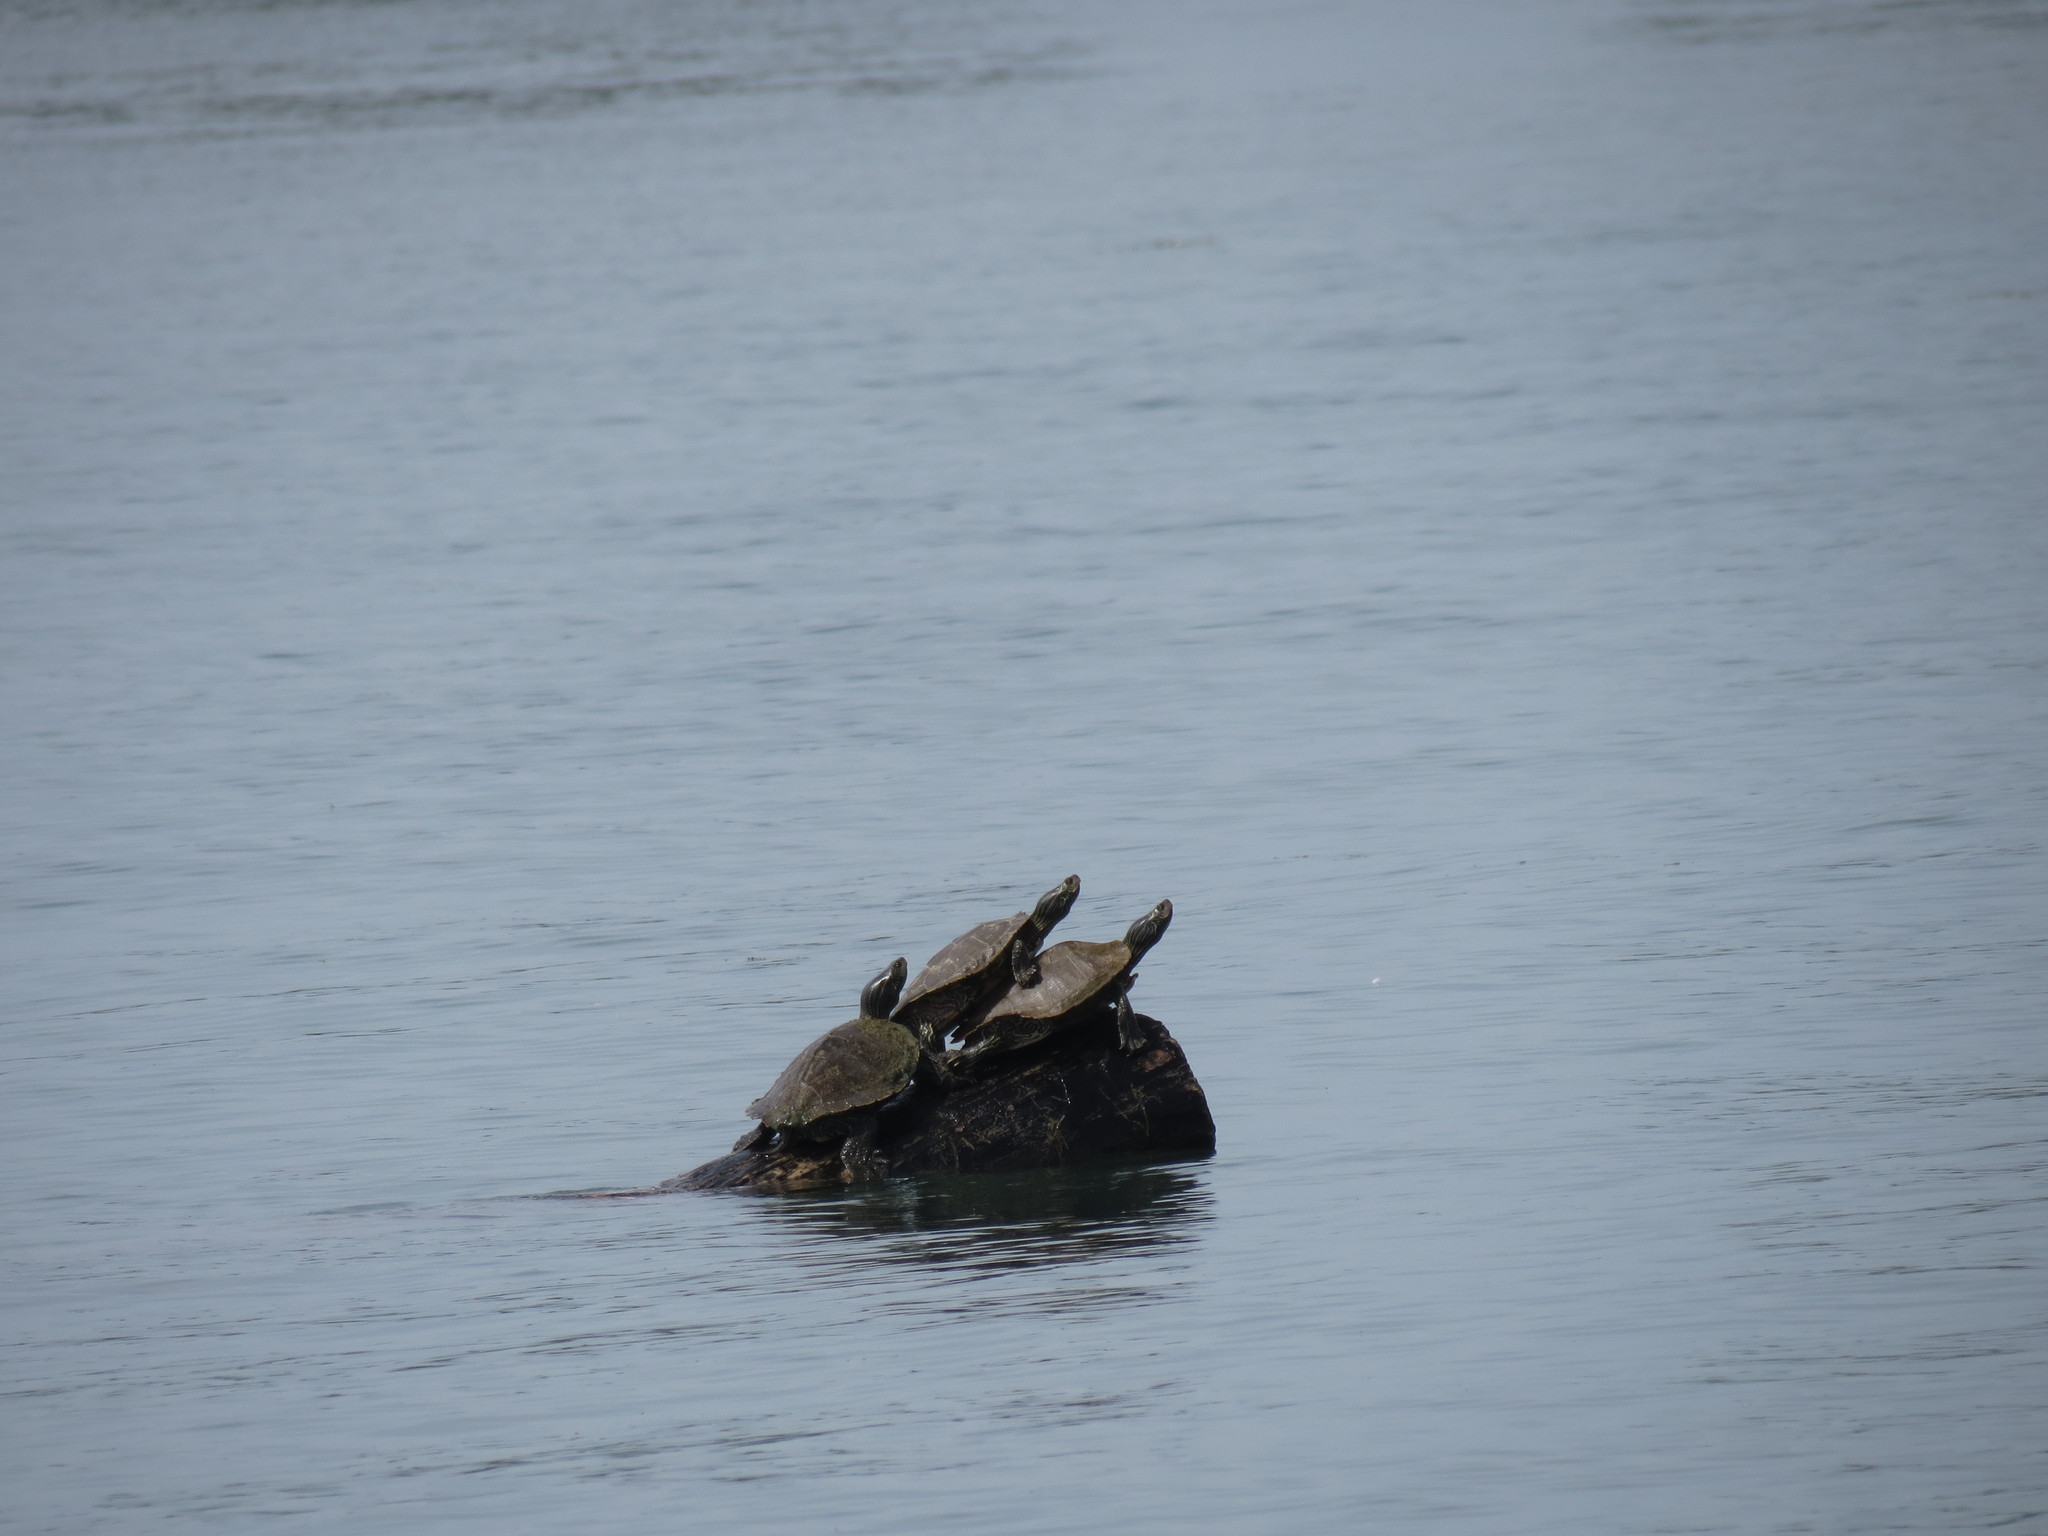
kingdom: Animalia
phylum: Chordata
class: Testudines
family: Emydidae
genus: Graptemys
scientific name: Graptemys geographica
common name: Common map turtle
